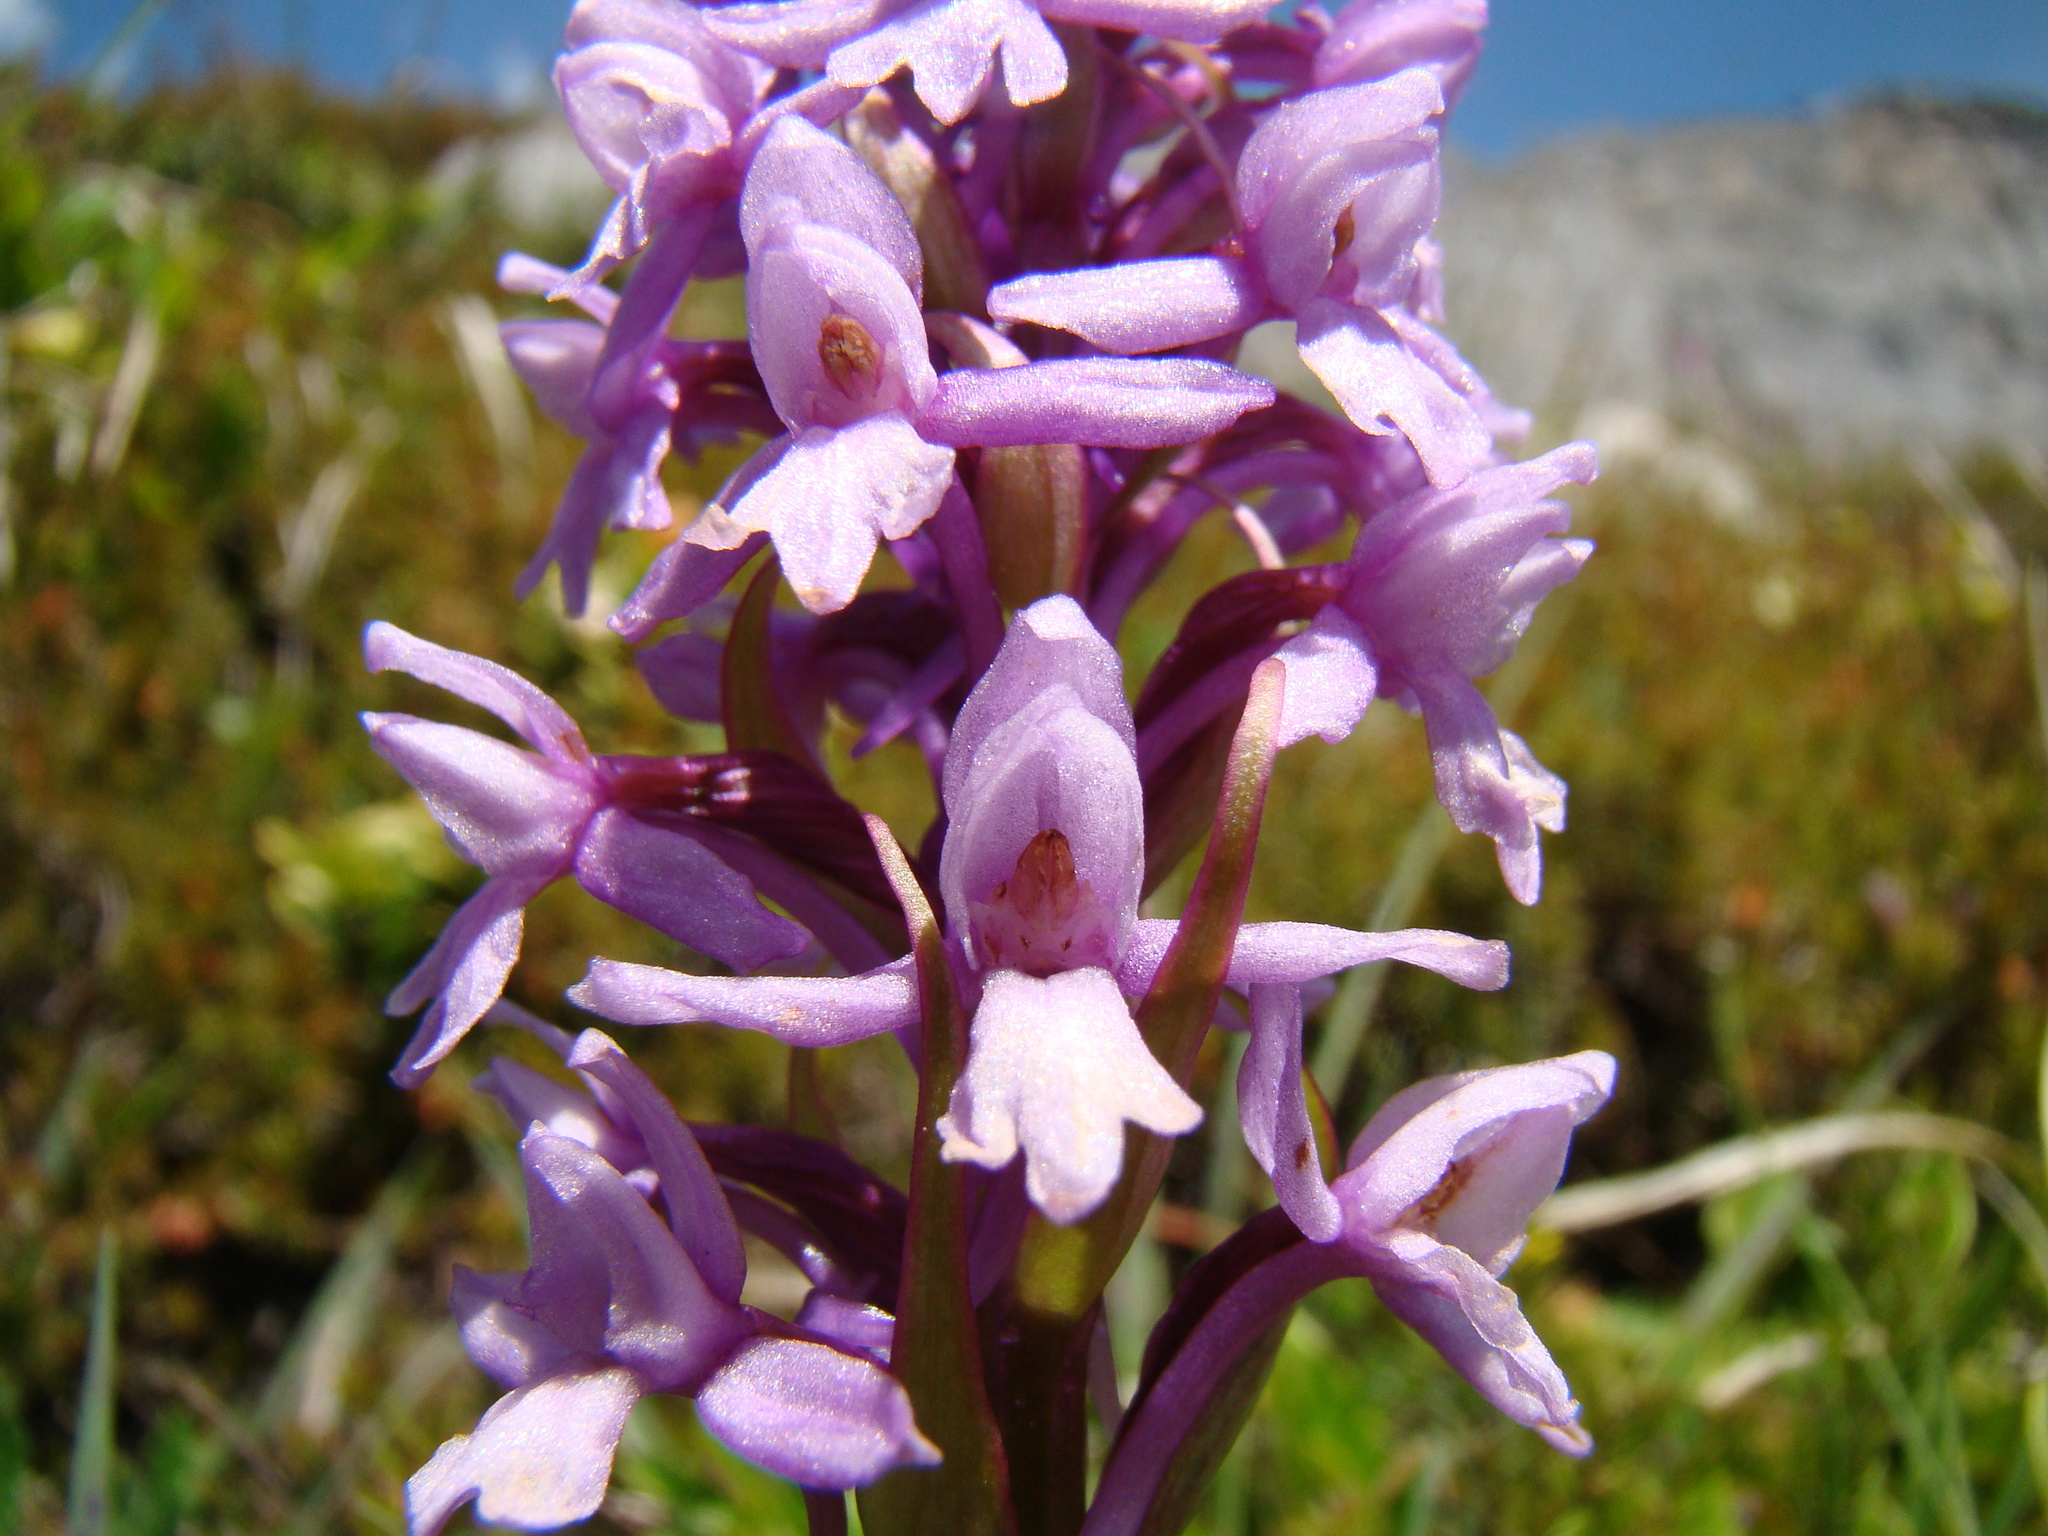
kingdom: Plantae
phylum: Tracheophyta
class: Liliopsida
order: Asparagales
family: Orchidaceae
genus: Gymnadenia
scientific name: Gymnadenia conopsea
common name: Fragrant orchid
